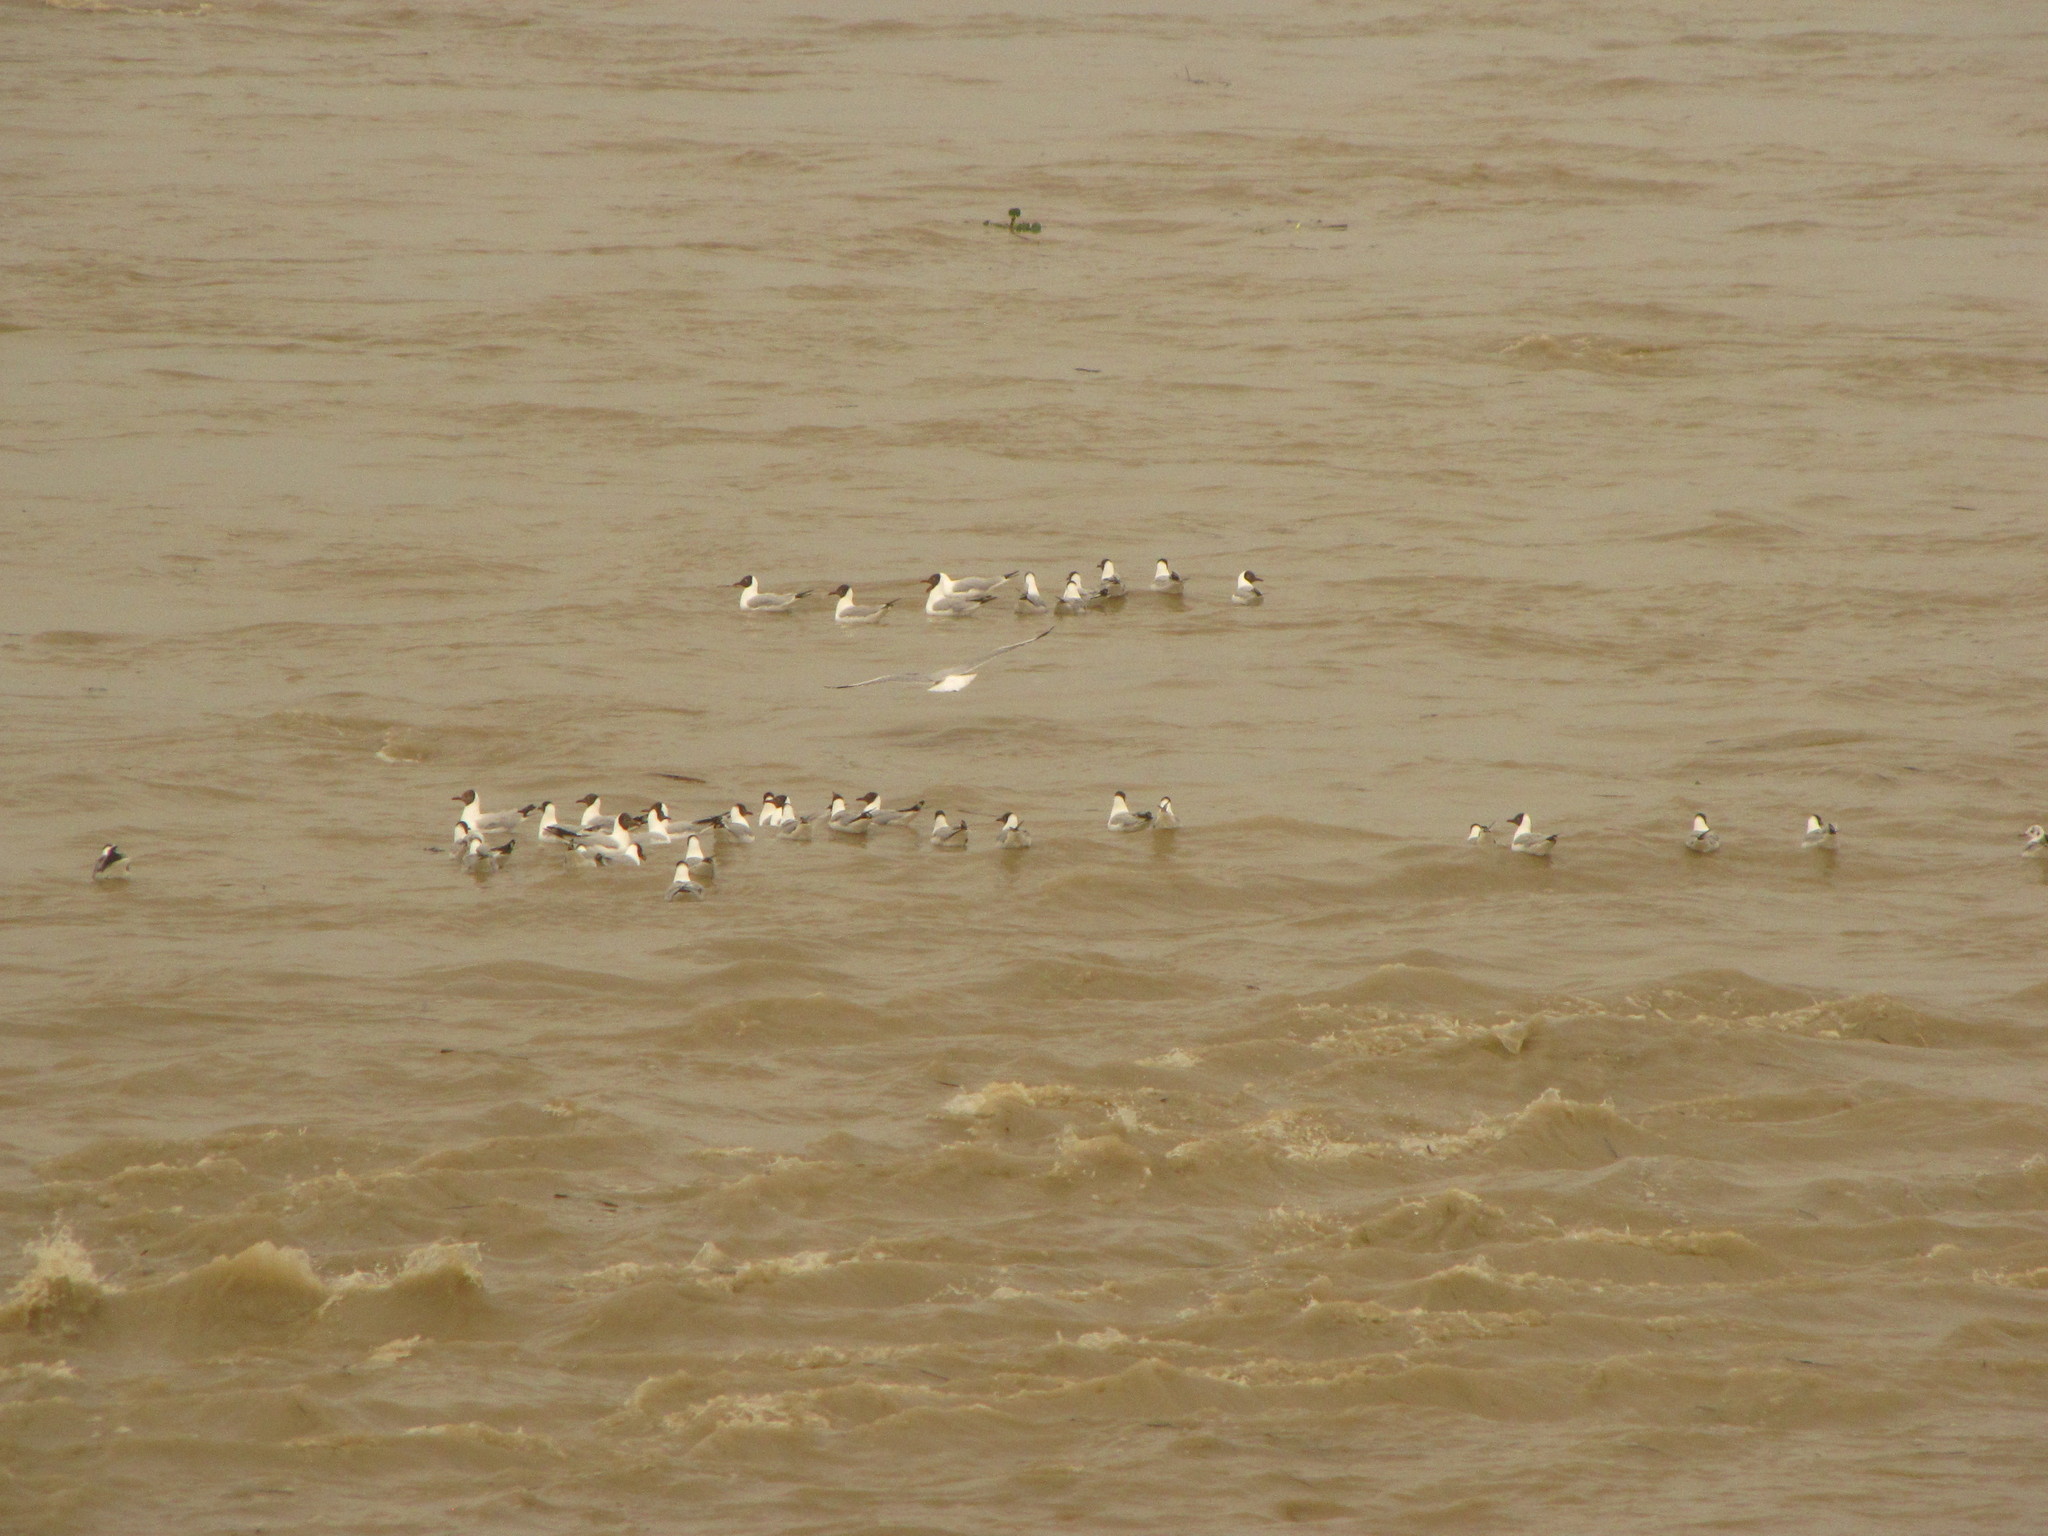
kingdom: Animalia
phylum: Chordata
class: Aves
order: Charadriiformes
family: Laridae
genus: Chroicocephalus
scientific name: Chroicocephalus brunnicephalus
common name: Brown-headed gull
